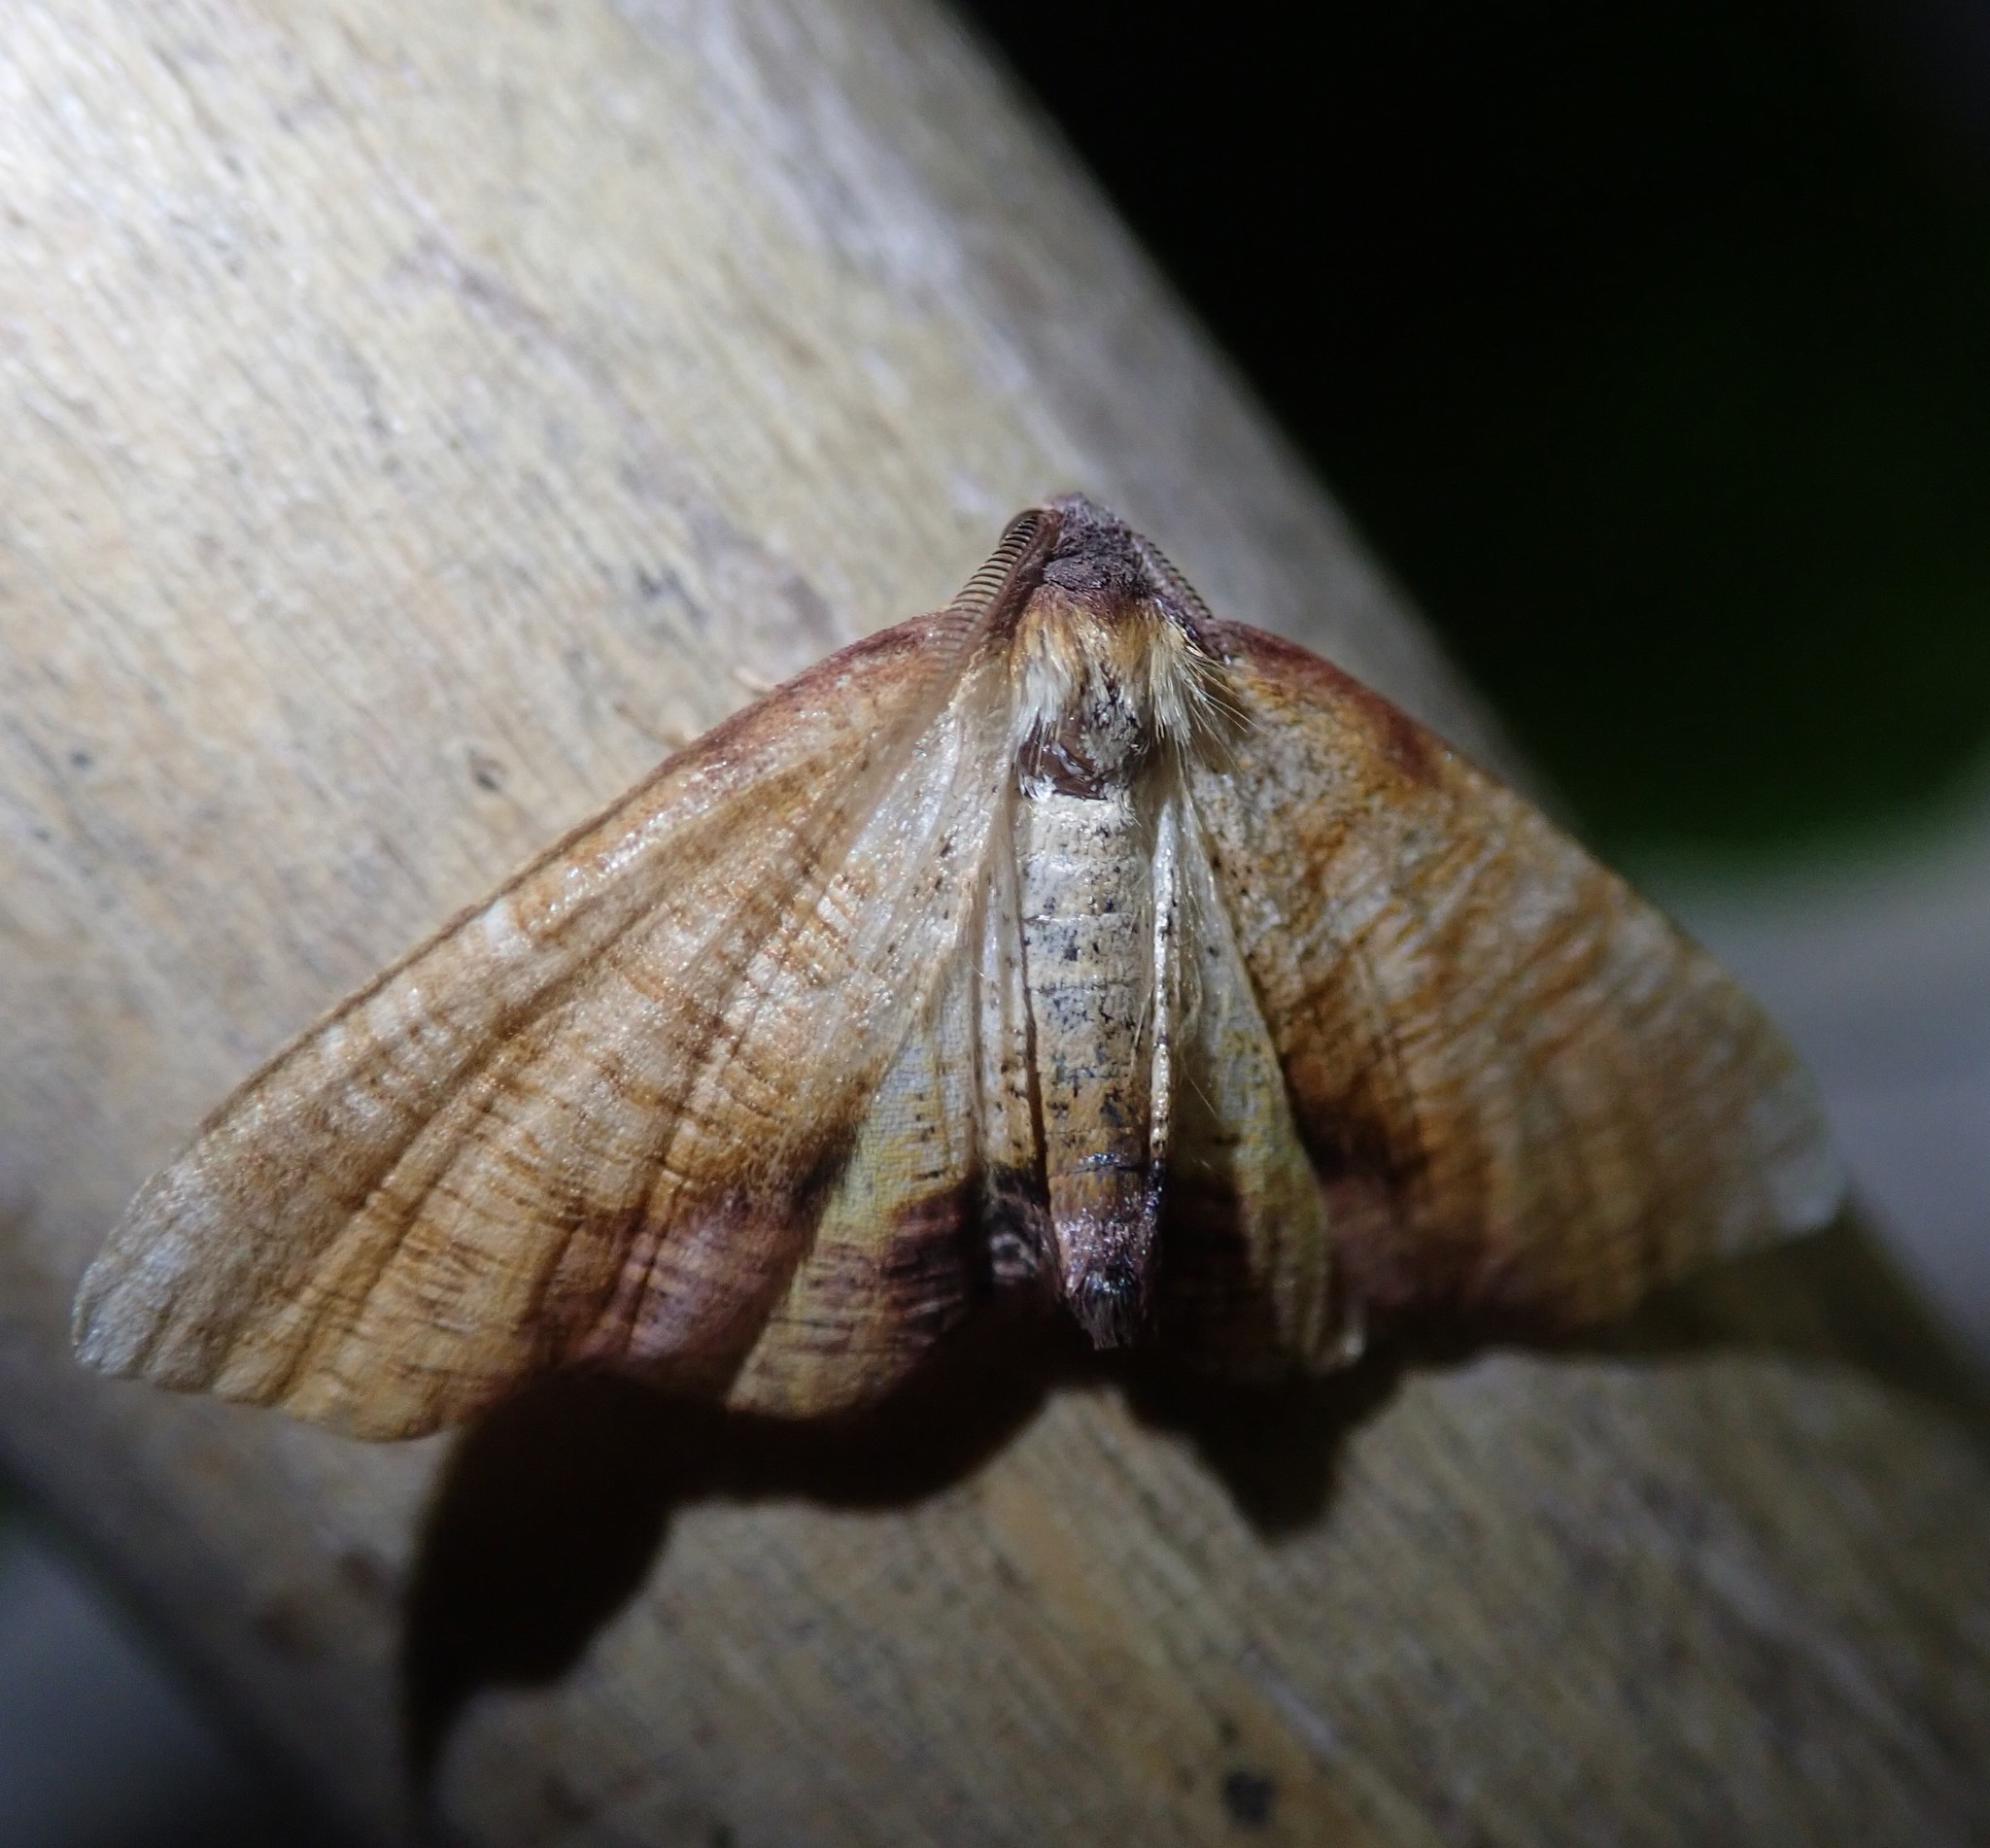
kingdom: Animalia
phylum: Arthropoda
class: Insecta
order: Lepidoptera
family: Geometridae
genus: Plagodis
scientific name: Plagodis dolabraria
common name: Scorched wing
